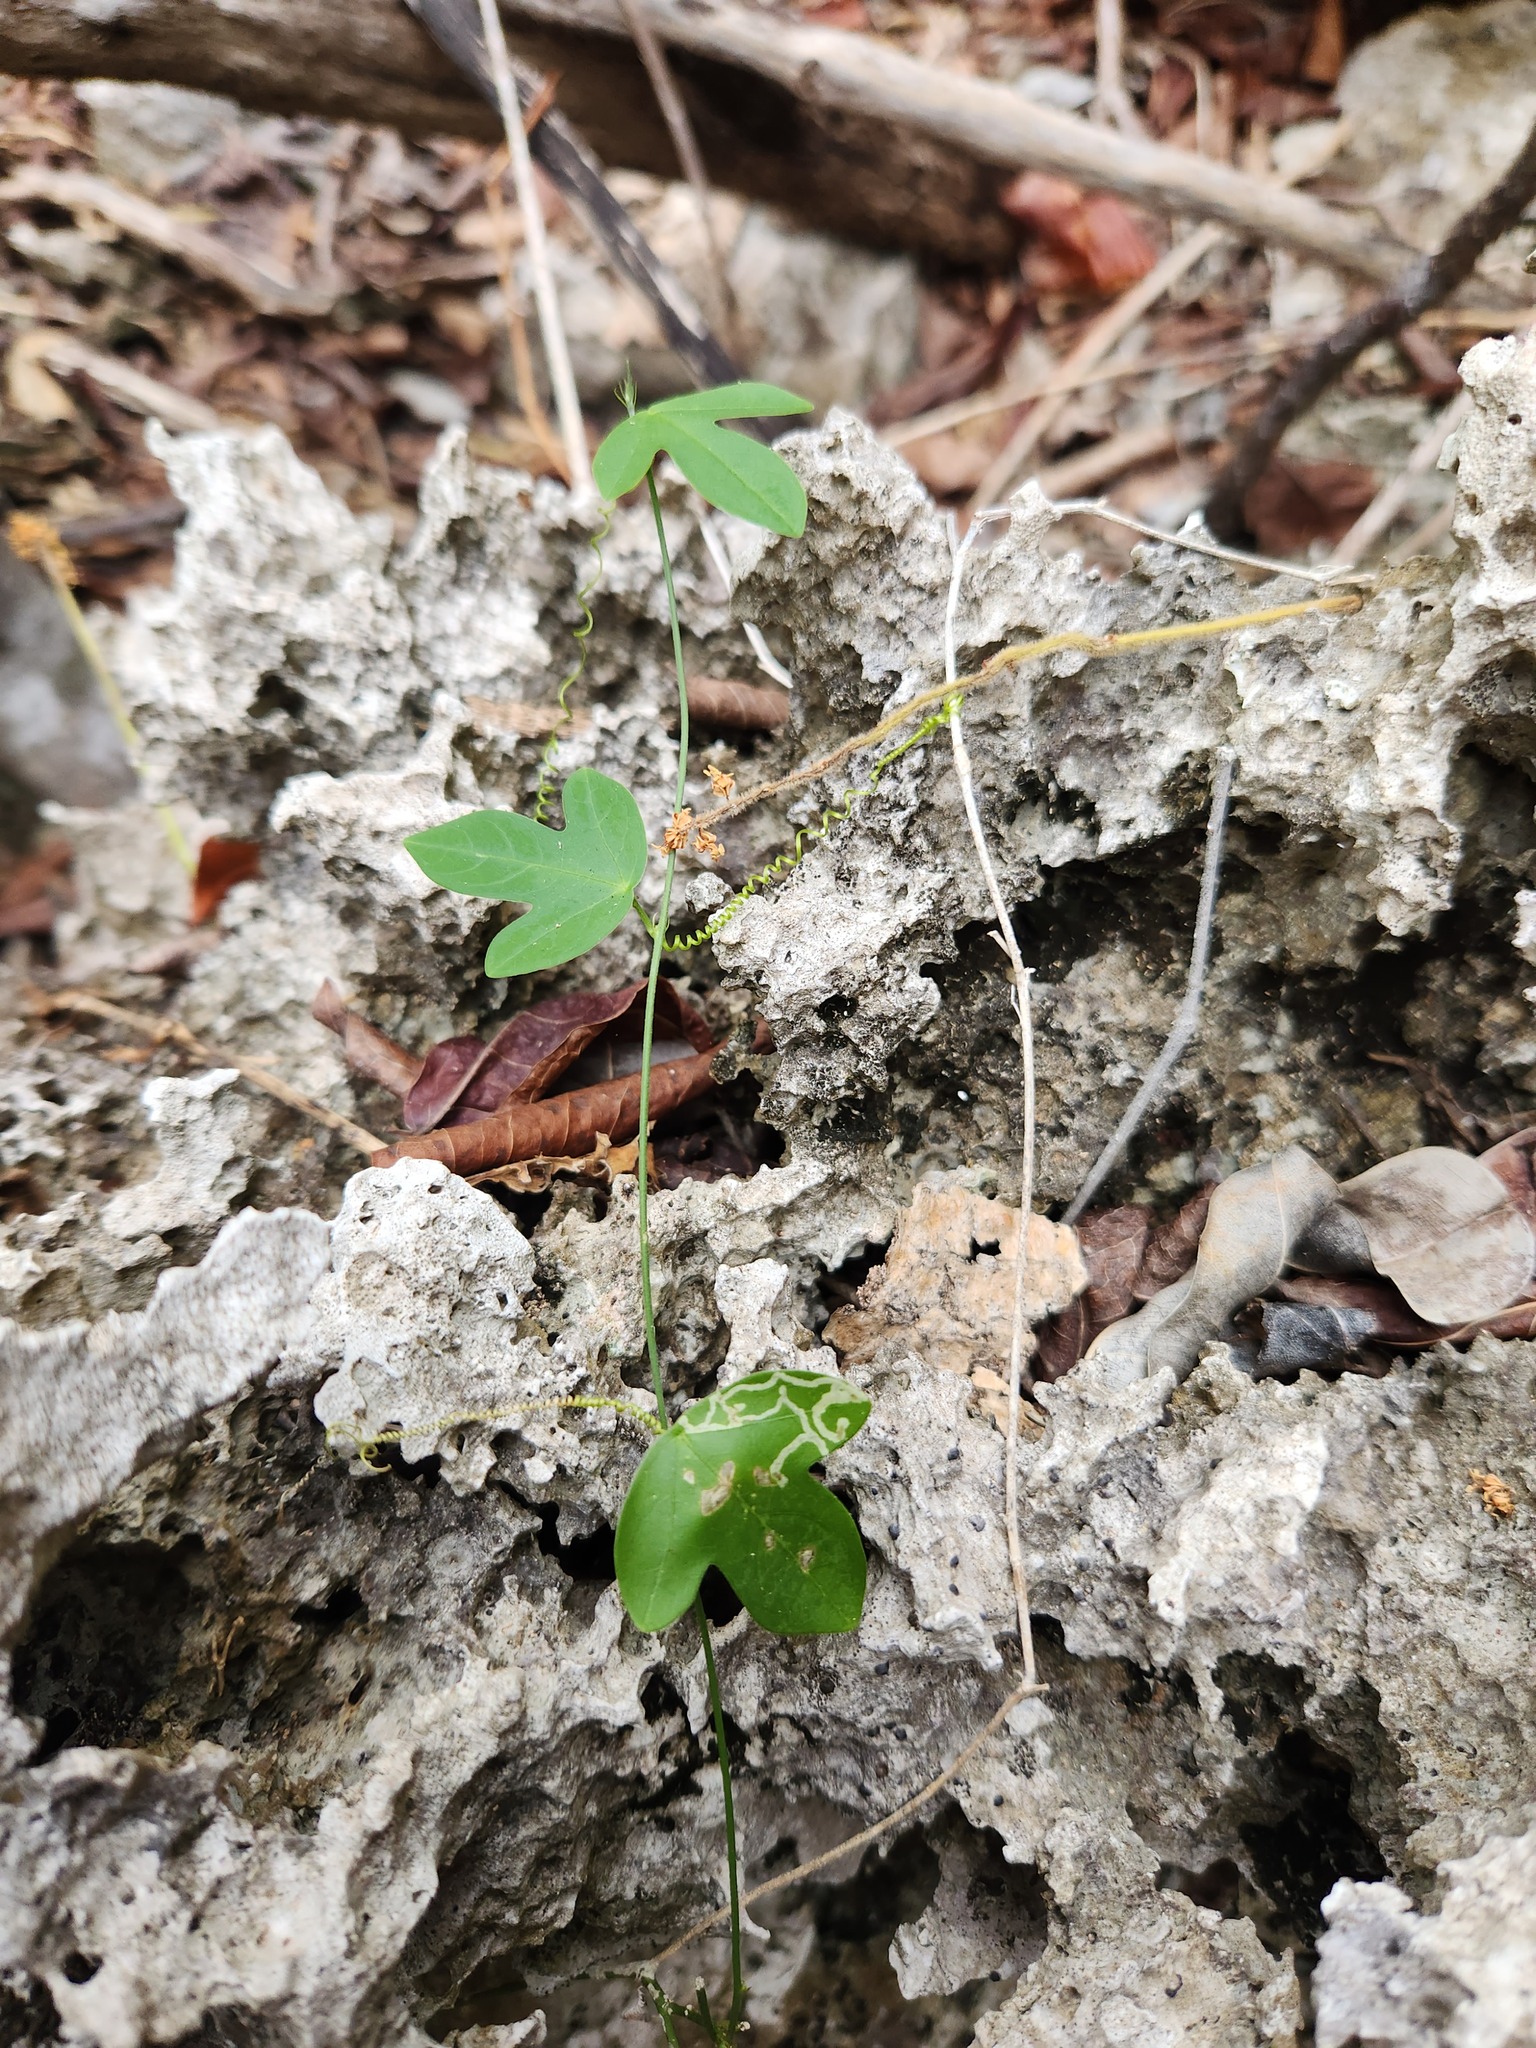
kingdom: Plantae
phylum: Tracheophyta
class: Magnoliopsida
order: Malpighiales
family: Passifloraceae
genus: Passiflora
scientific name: Passiflora pallida
